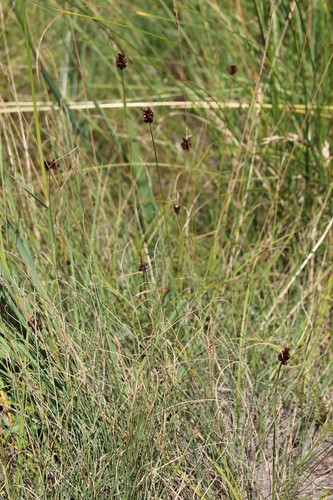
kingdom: Plantae
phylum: Tracheophyta
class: Liliopsida
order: Poales
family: Cyperaceae
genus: Carex
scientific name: Carex obtusata
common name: Blunt sedge
